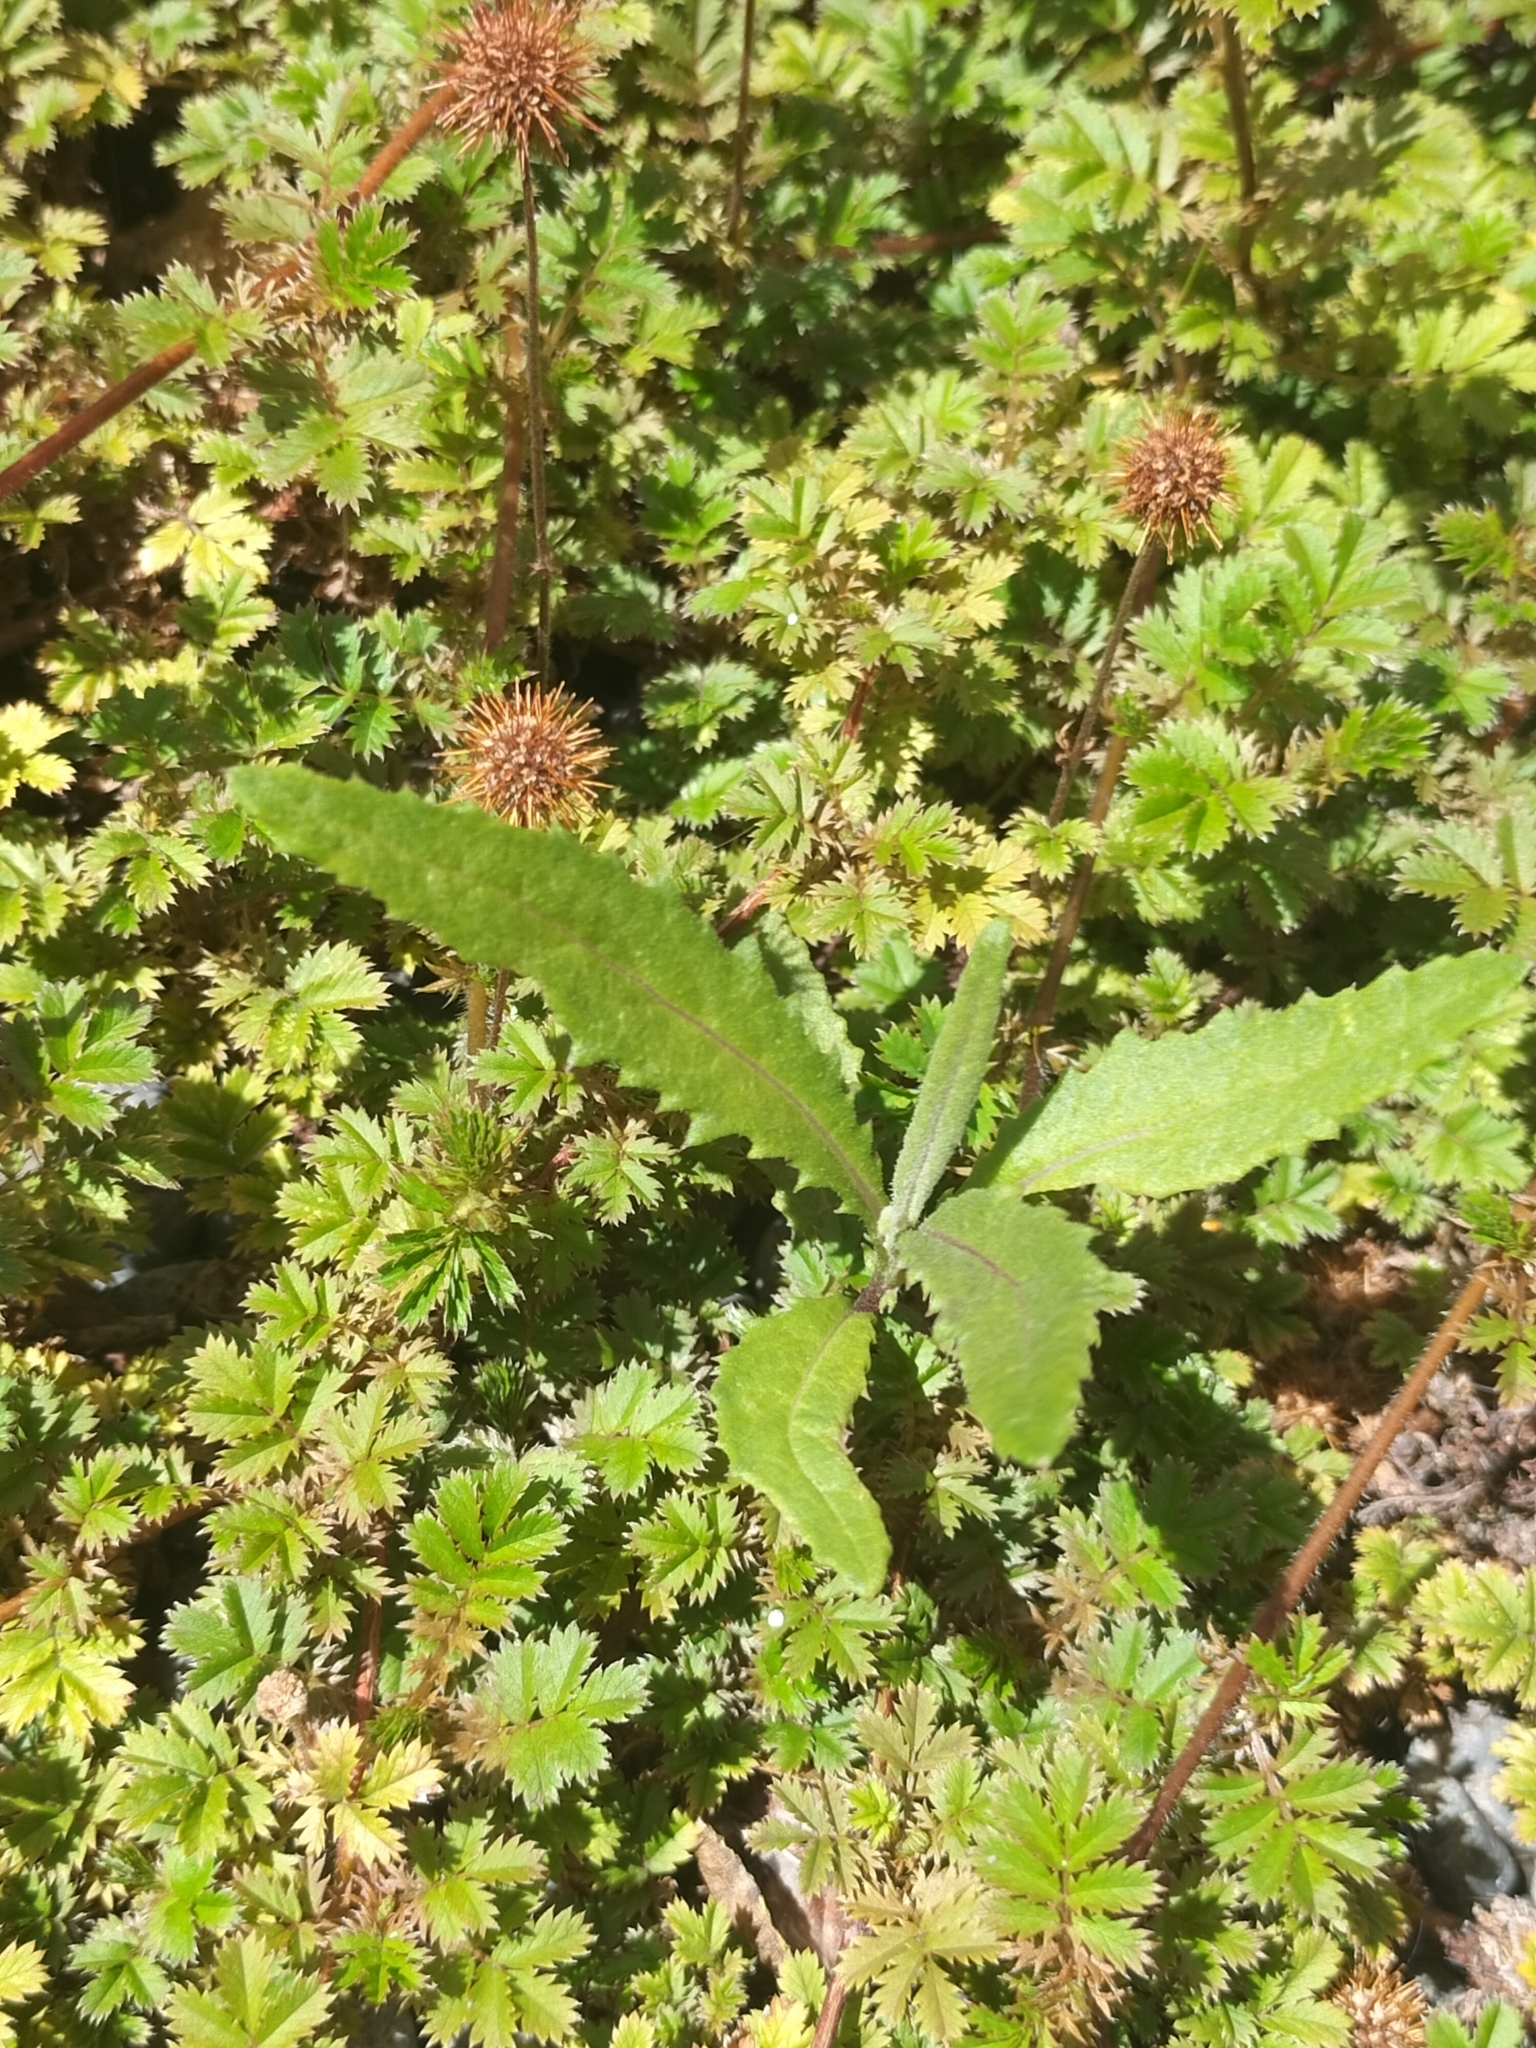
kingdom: Plantae
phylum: Tracheophyta
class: Magnoliopsida
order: Asterales
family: Asteraceae
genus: Senecio
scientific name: Senecio minimus
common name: Toothed fireweed
